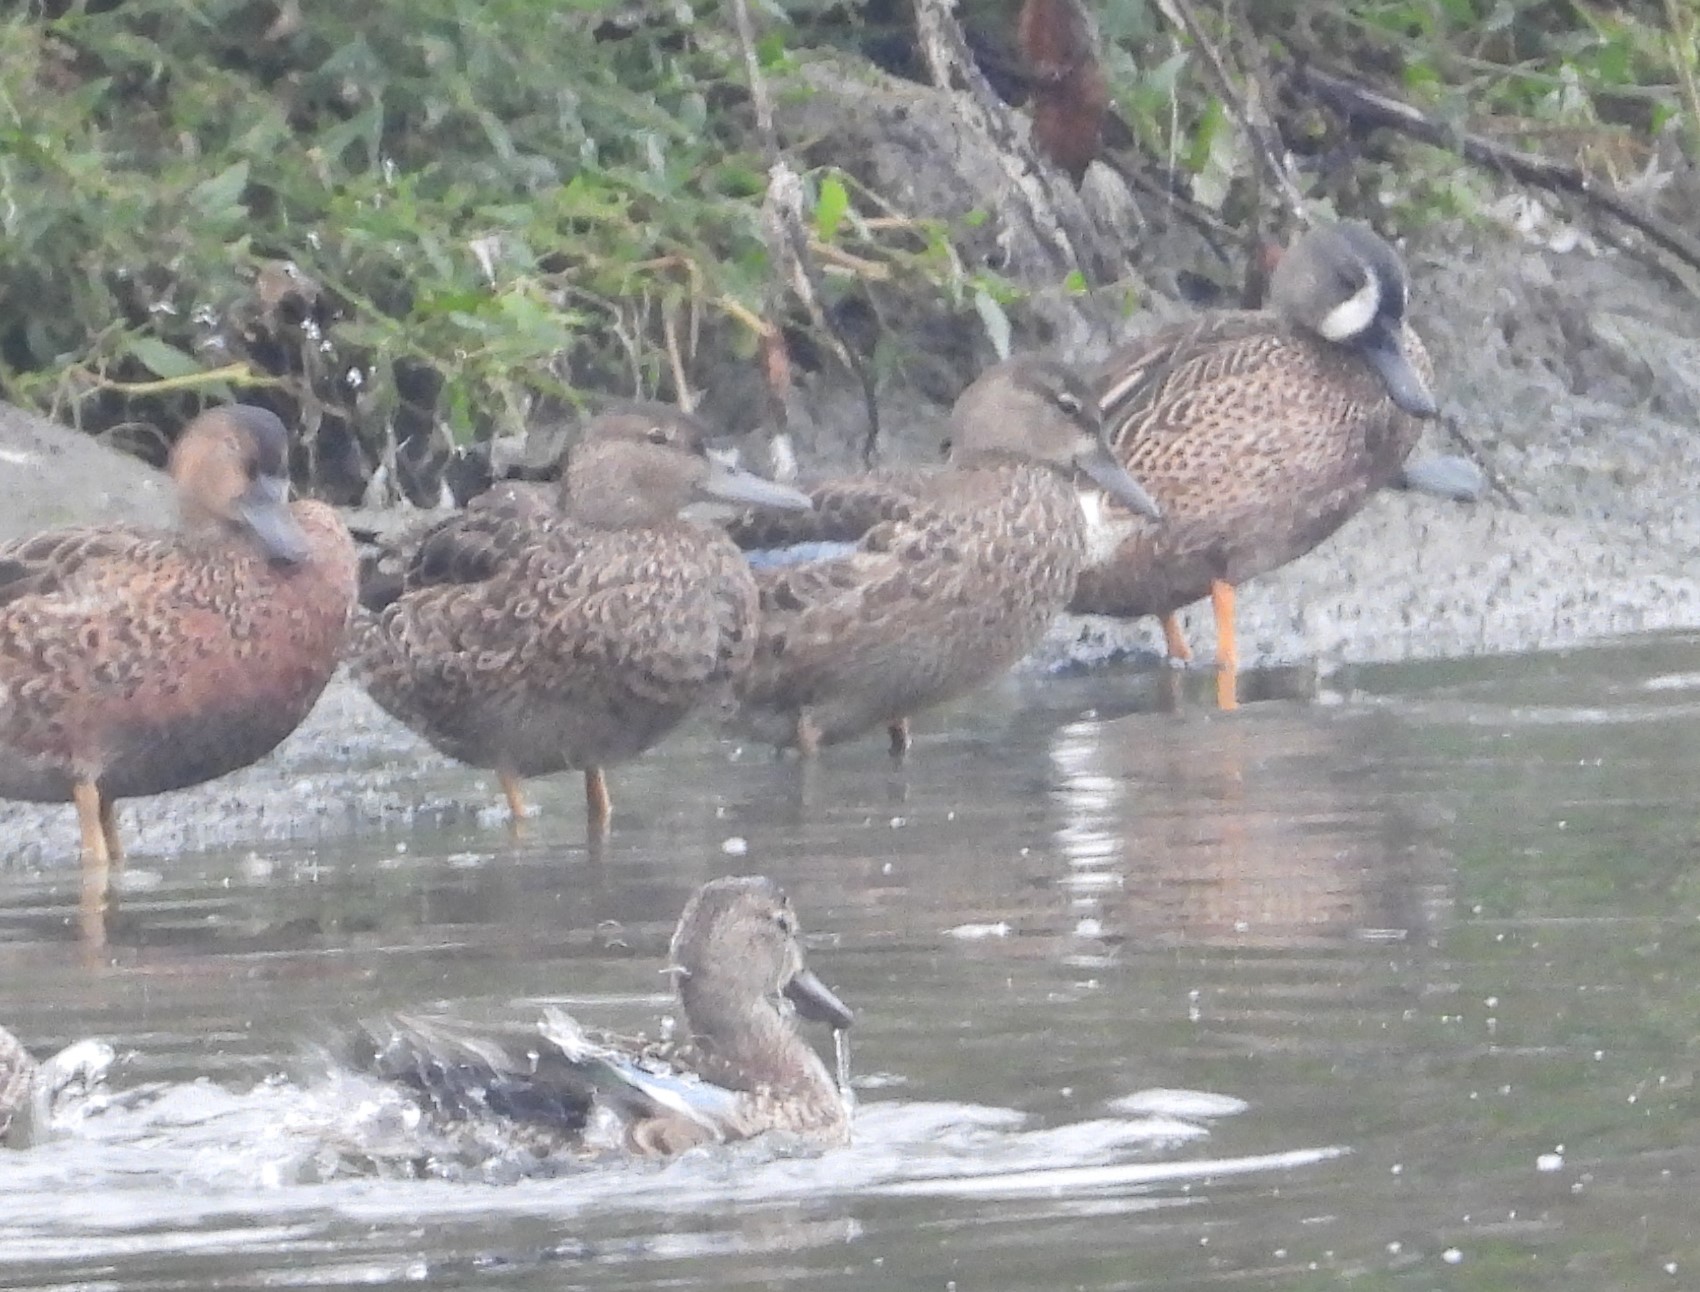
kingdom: Animalia
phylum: Chordata
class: Aves
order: Anseriformes
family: Anatidae
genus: Spatula
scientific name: Spatula discors
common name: Blue-winged teal
